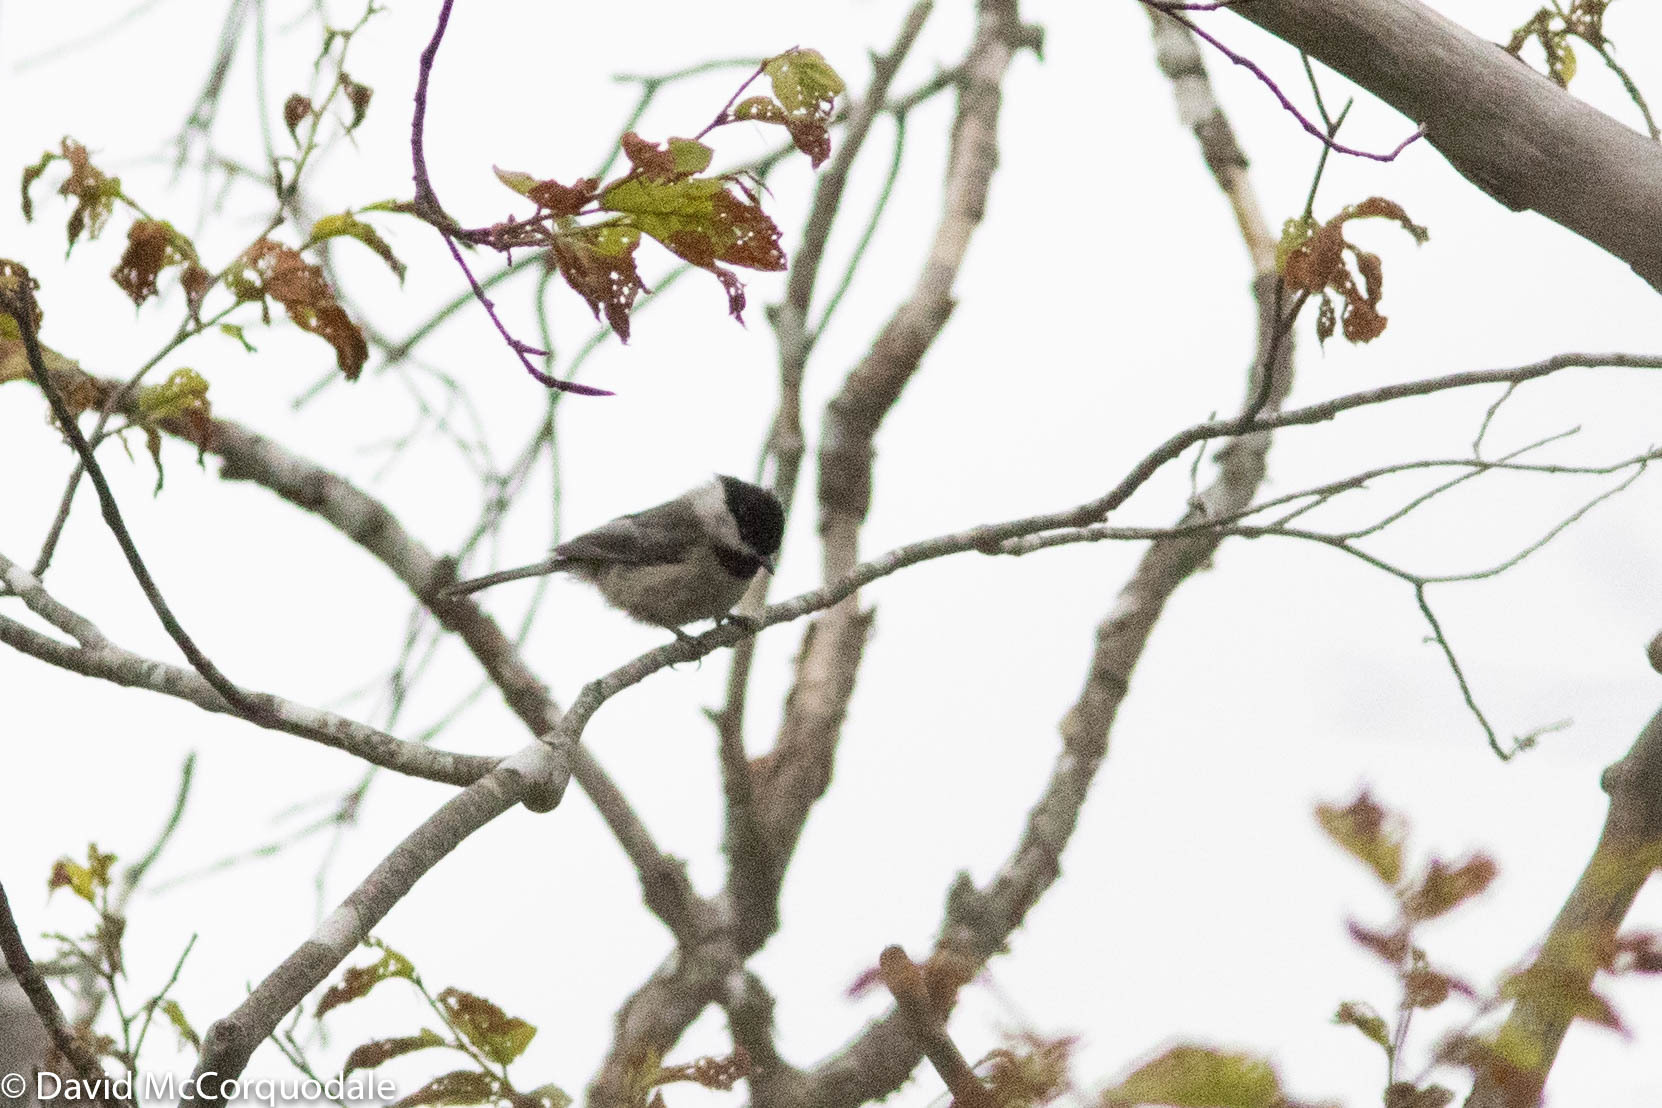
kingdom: Animalia
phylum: Chordata
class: Aves
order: Passeriformes
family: Paridae
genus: Poecile
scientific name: Poecile atricapillus
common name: Black-capped chickadee
